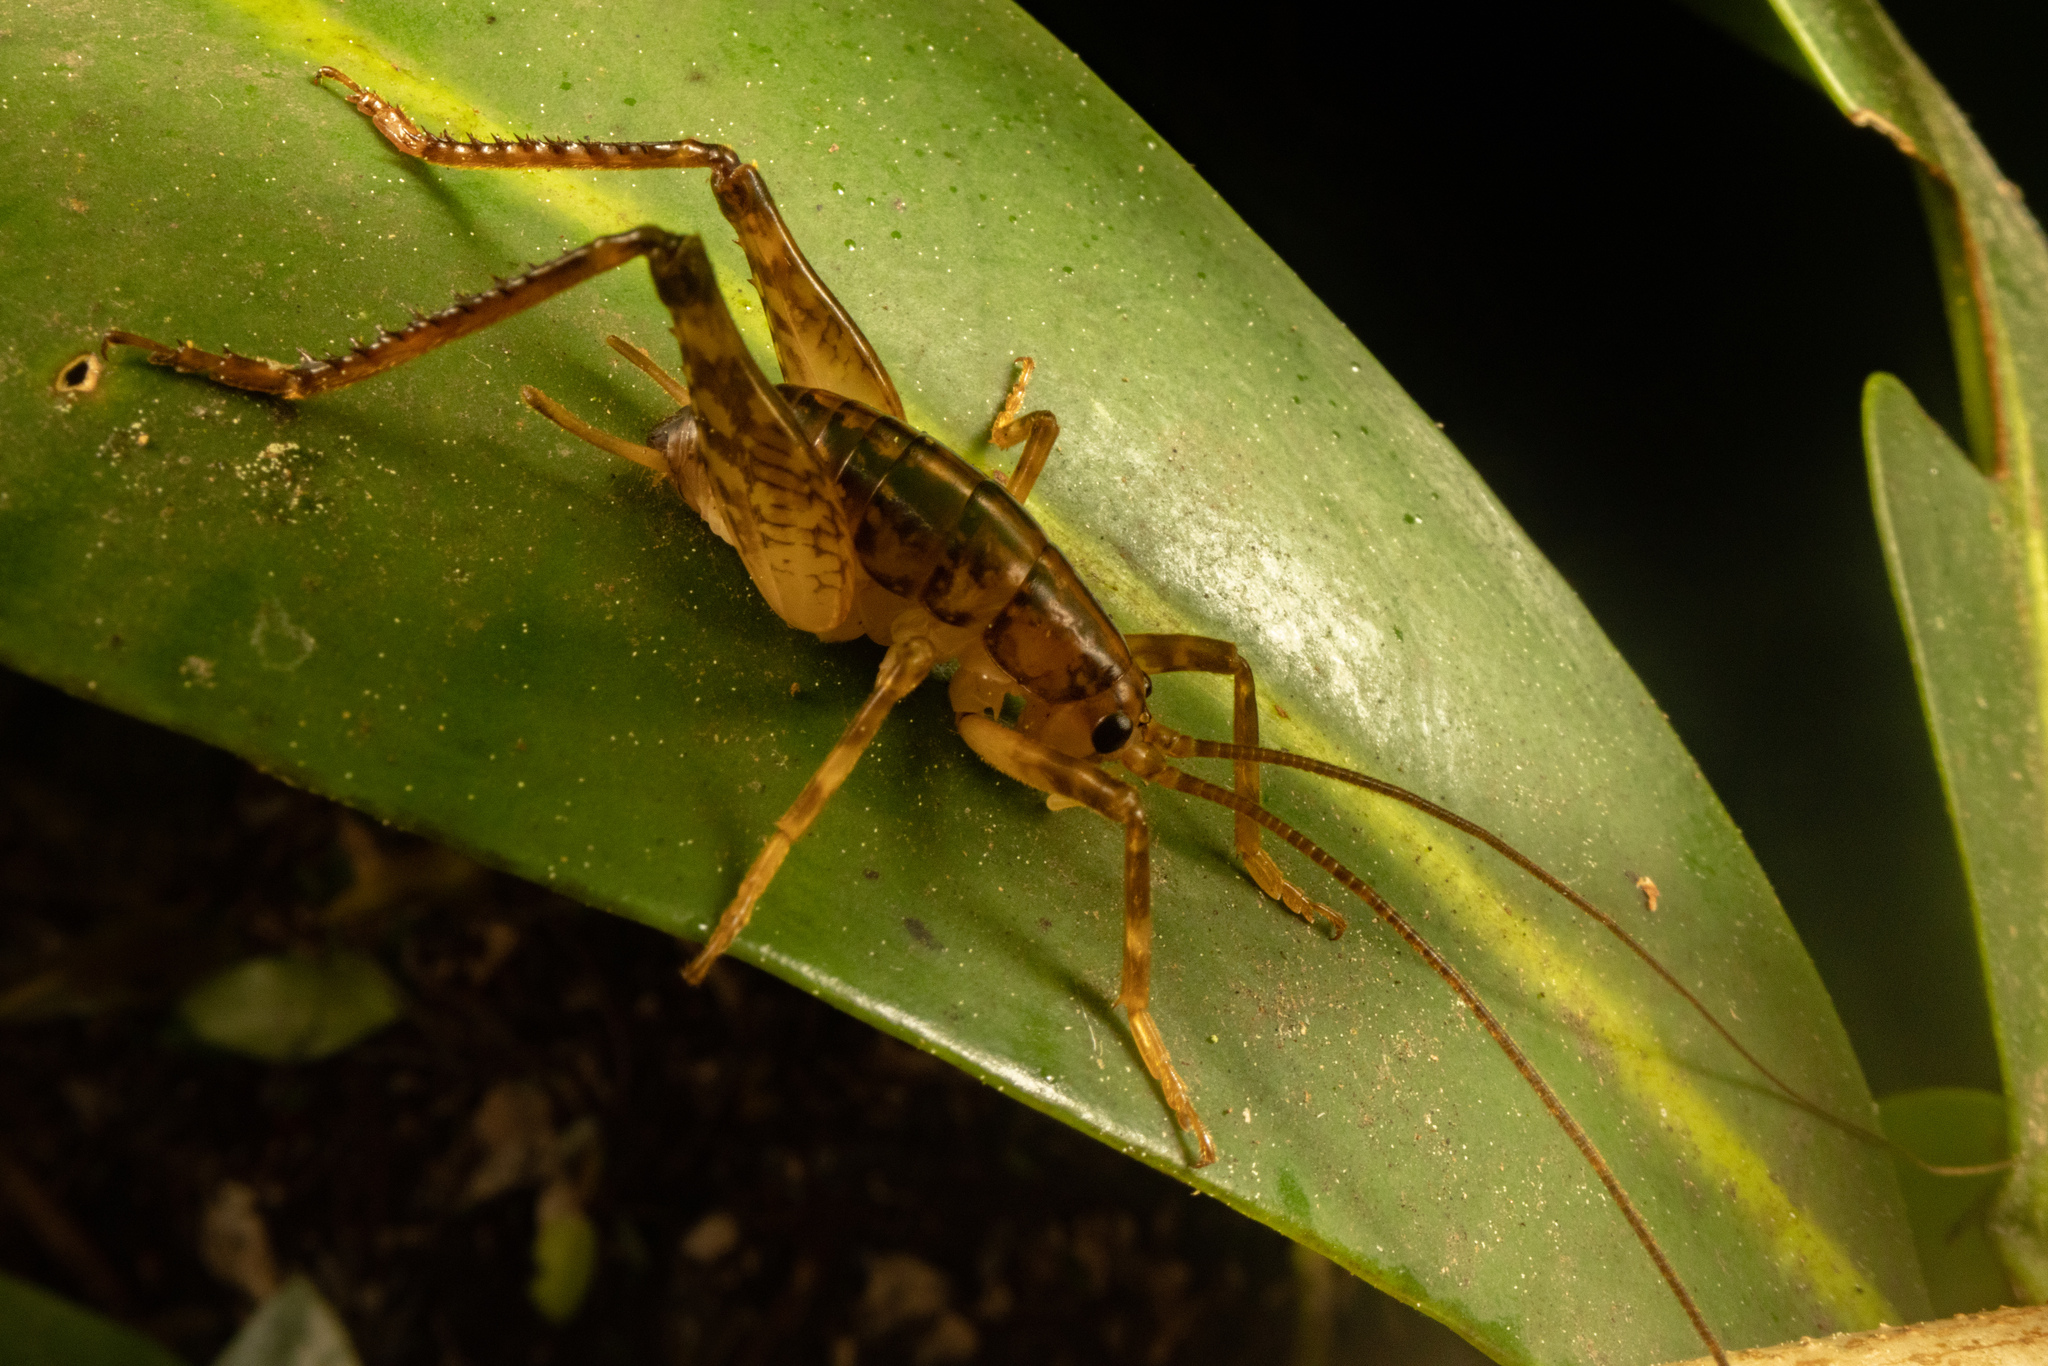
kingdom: Animalia
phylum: Arthropoda
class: Insecta
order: Orthoptera
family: Rhaphidophoridae
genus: Talitropsis
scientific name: Talitropsis sedilloti
